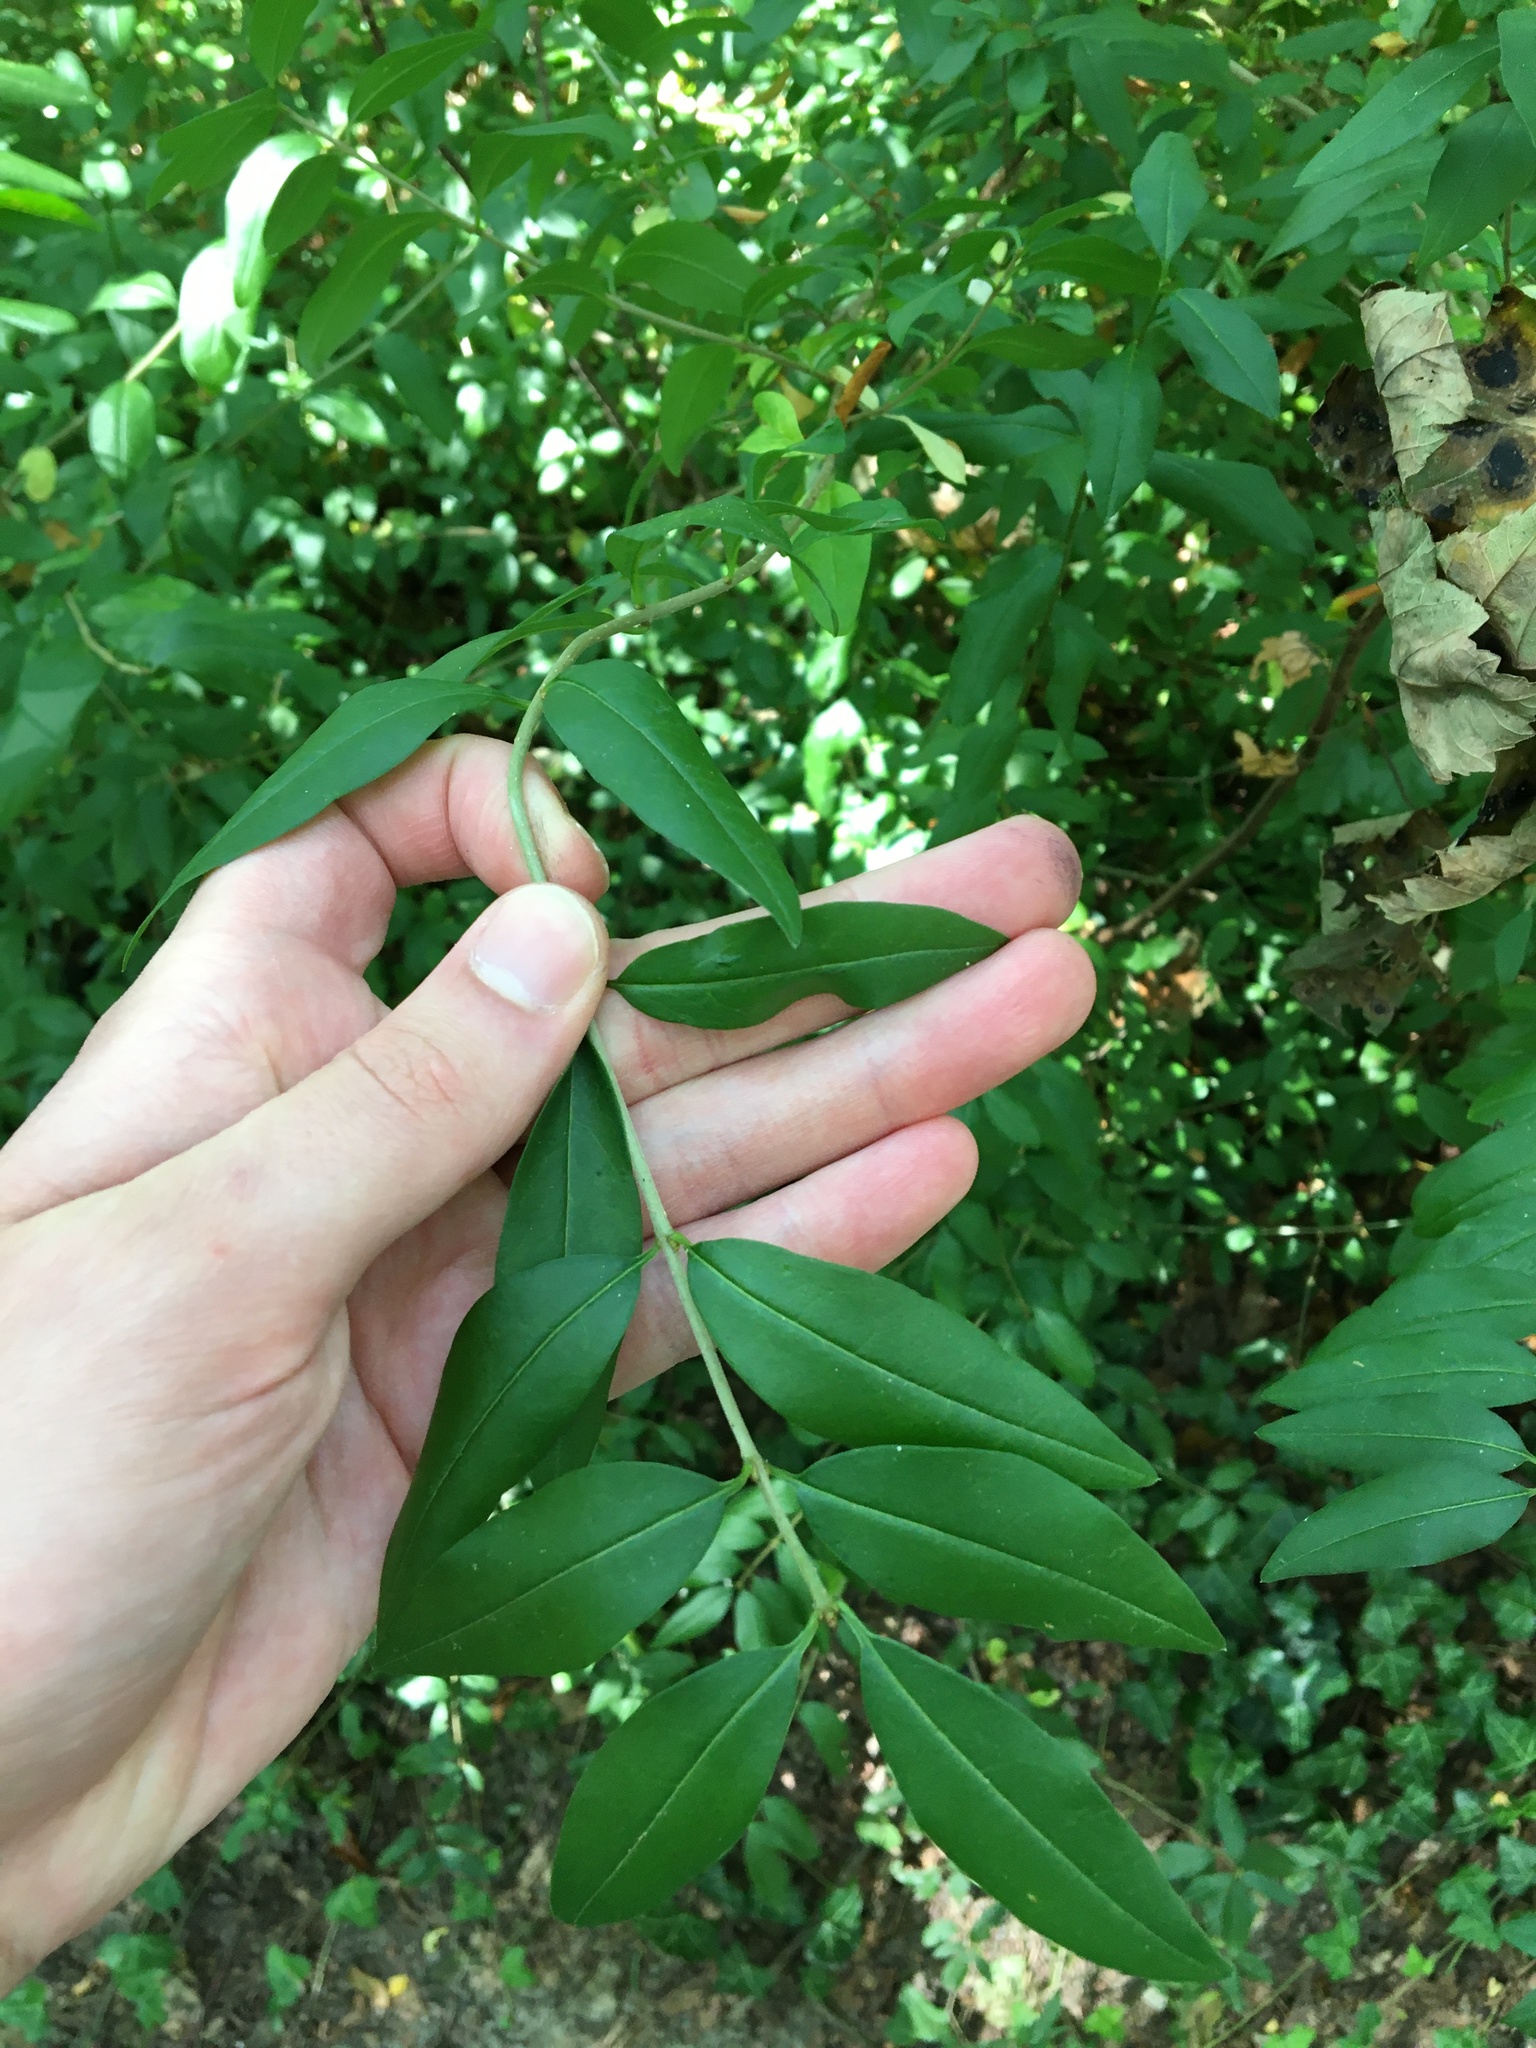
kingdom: Plantae
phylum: Tracheophyta
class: Magnoliopsida
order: Lamiales
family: Oleaceae
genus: Ligustrum
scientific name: Ligustrum vulgare
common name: Wild privet
